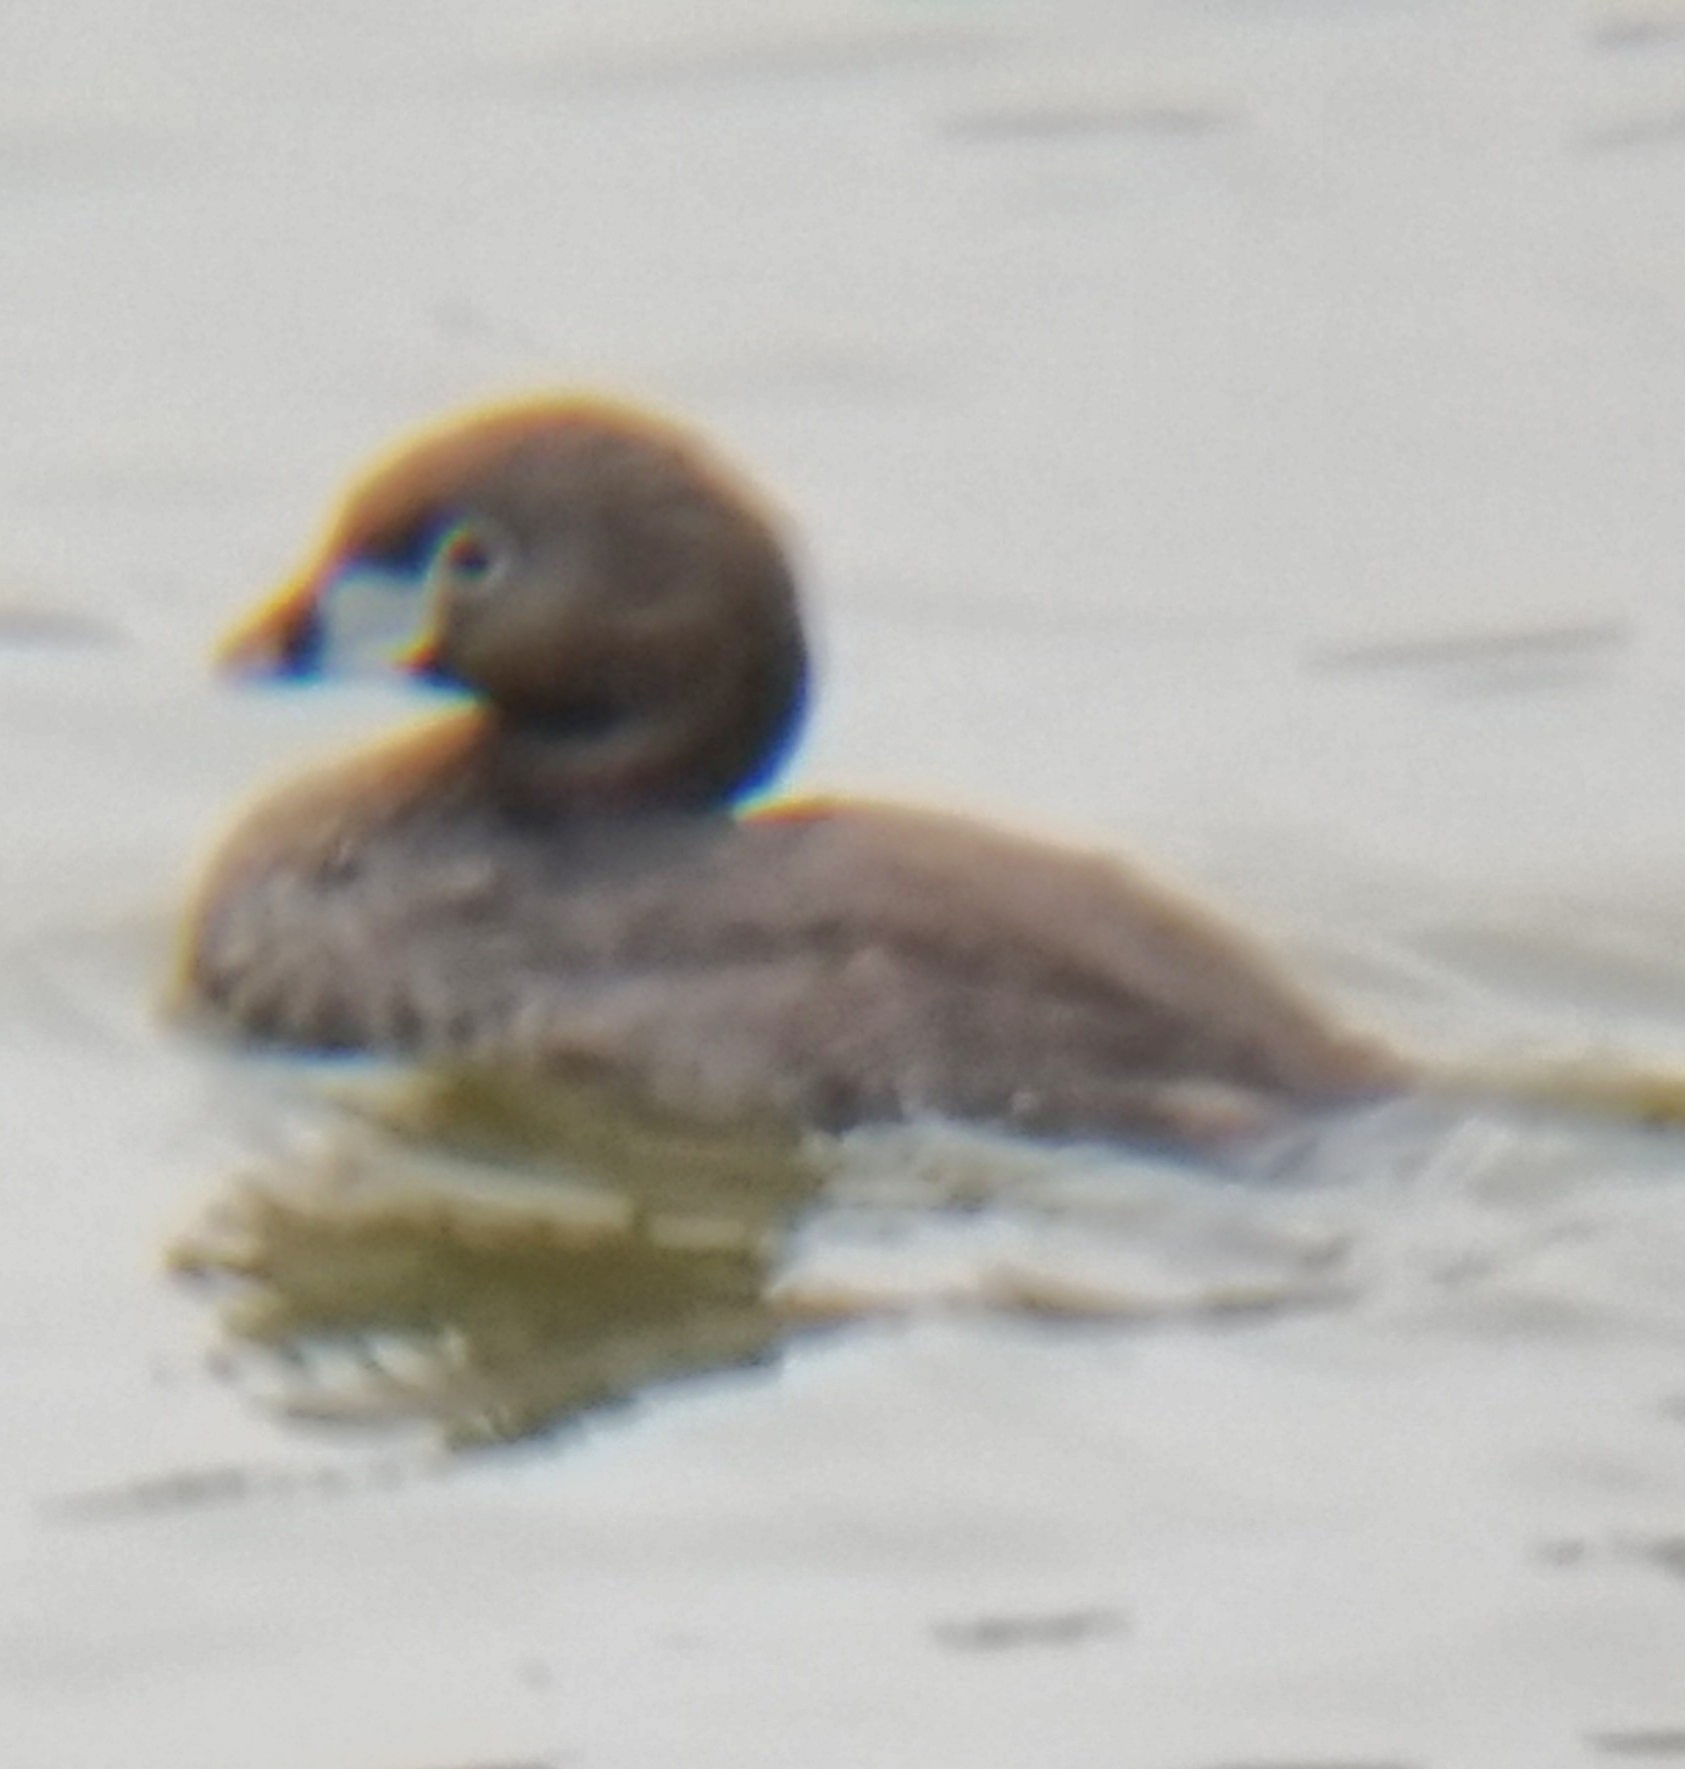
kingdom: Animalia
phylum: Chordata
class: Aves
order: Podicipediformes
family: Podicipedidae
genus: Podilymbus
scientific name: Podilymbus podiceps
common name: Pied-billed grebe
